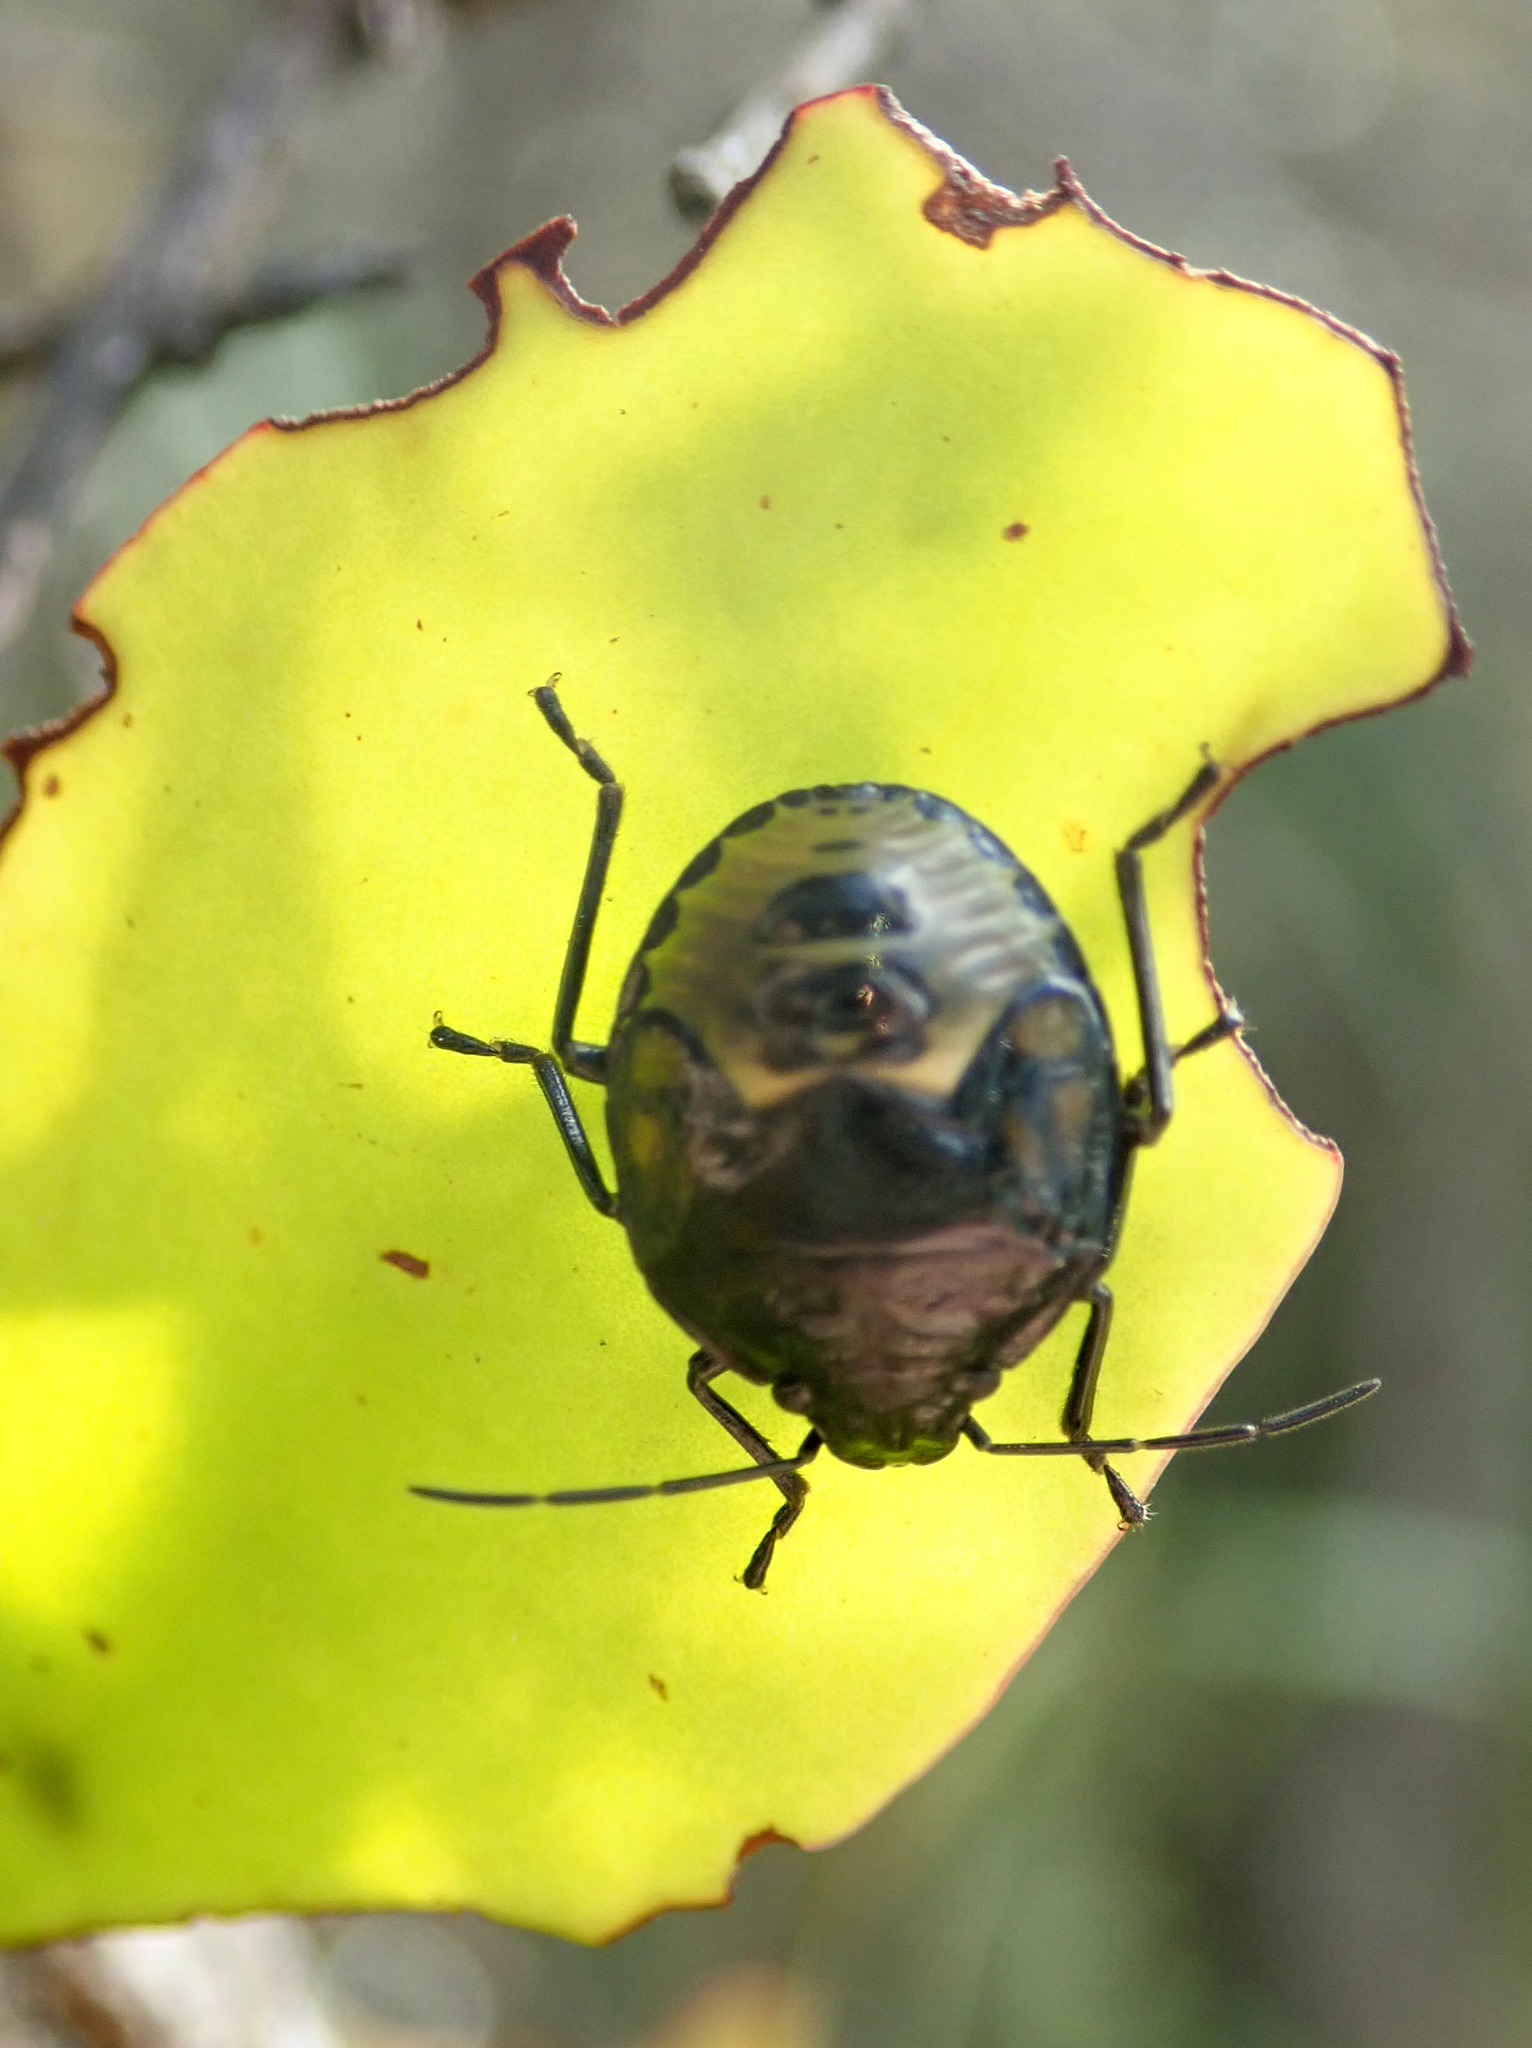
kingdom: Animalia
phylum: Arthropoda
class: Insecta
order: Hemiptera
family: Pentatomidae
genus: Glaucias
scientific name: Glaucias amyota
